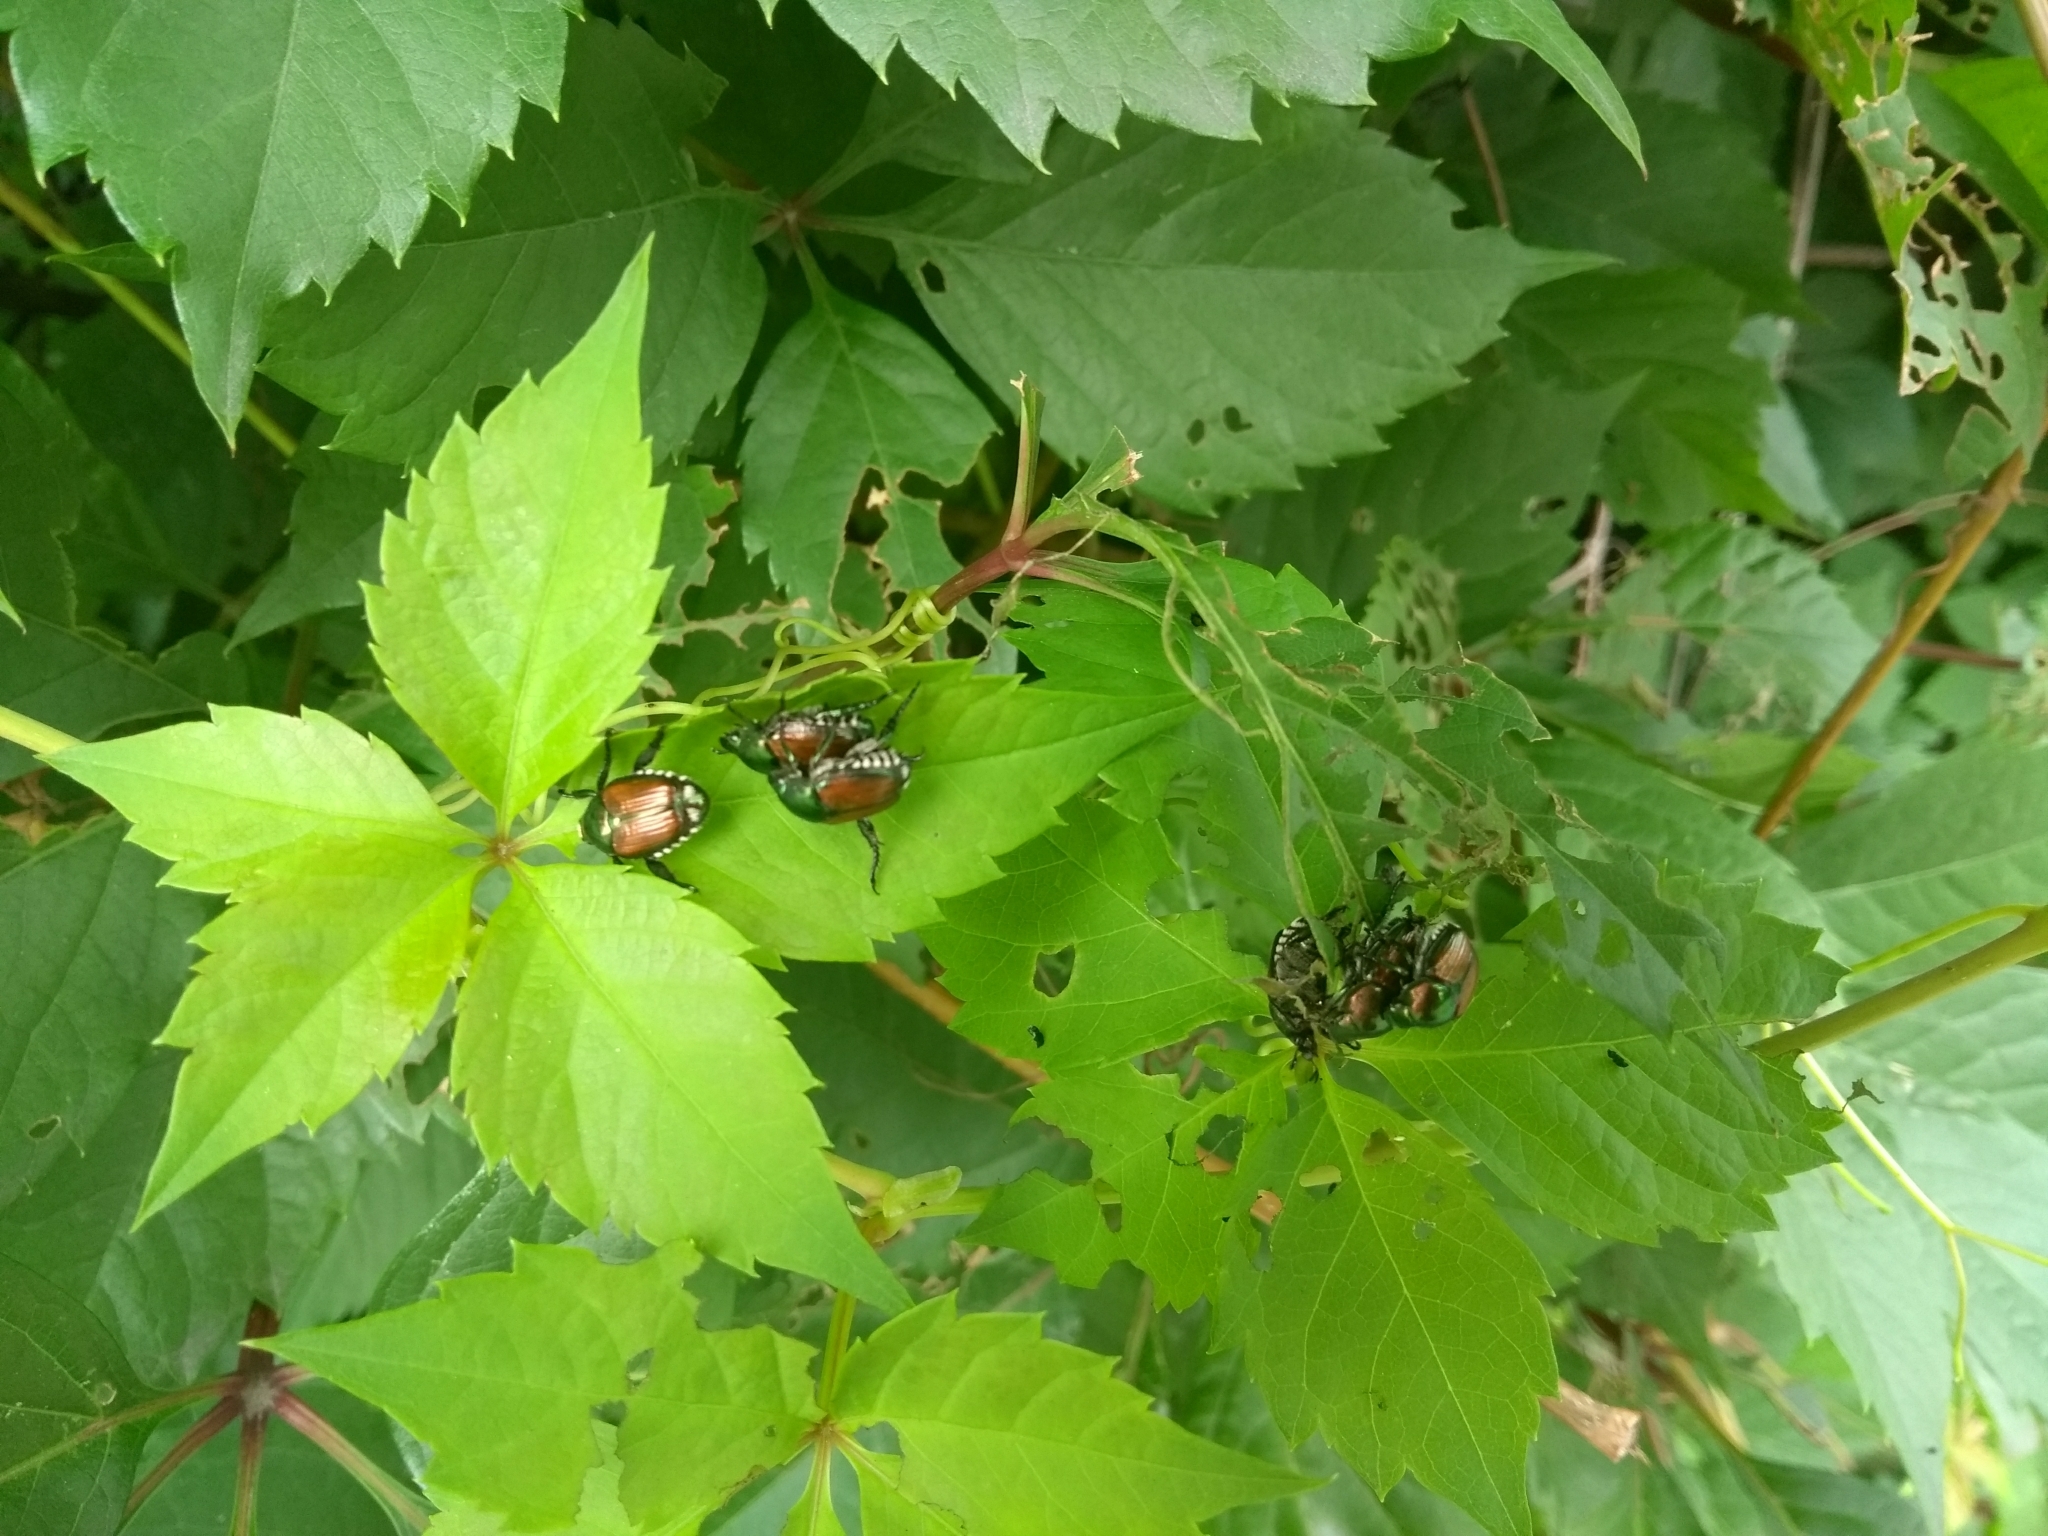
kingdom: Animalia
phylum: Arthropoda
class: Insecta
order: Coleoptera
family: Scarabaeidae
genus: Popillia
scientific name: Popillia japonica
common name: Japanese beetle
